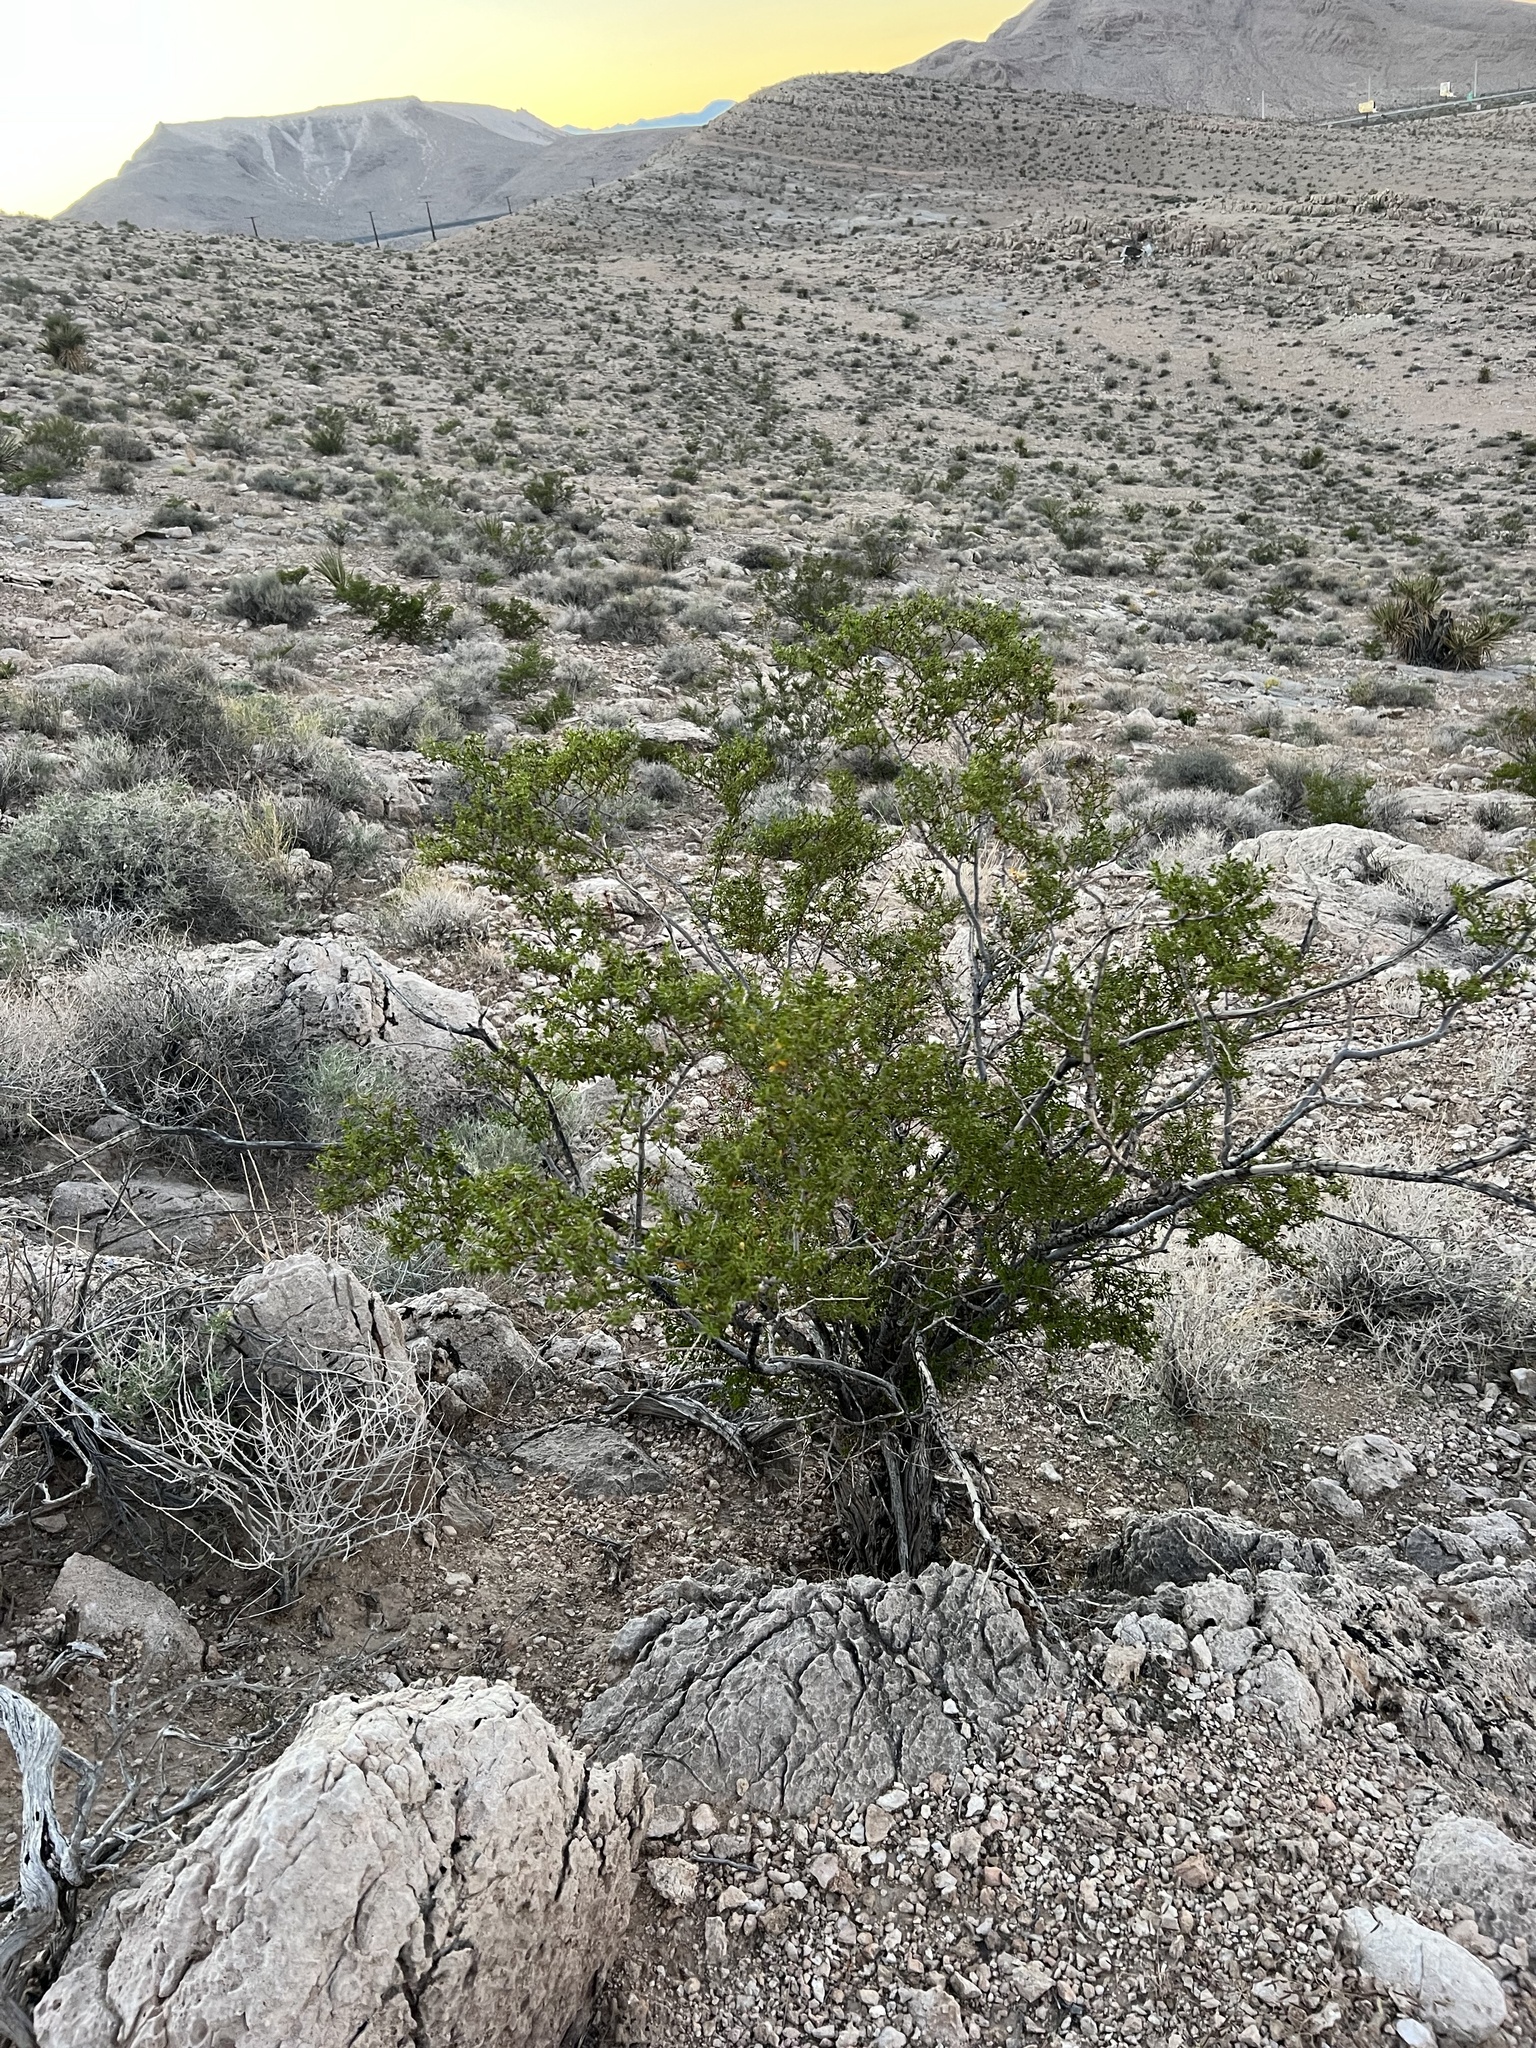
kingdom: Plantae
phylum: Tracheophyta
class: Magnoliopsida
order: Zygophyllales
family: Zygophyllaceae
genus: Larrea
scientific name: Larrea tridentata
